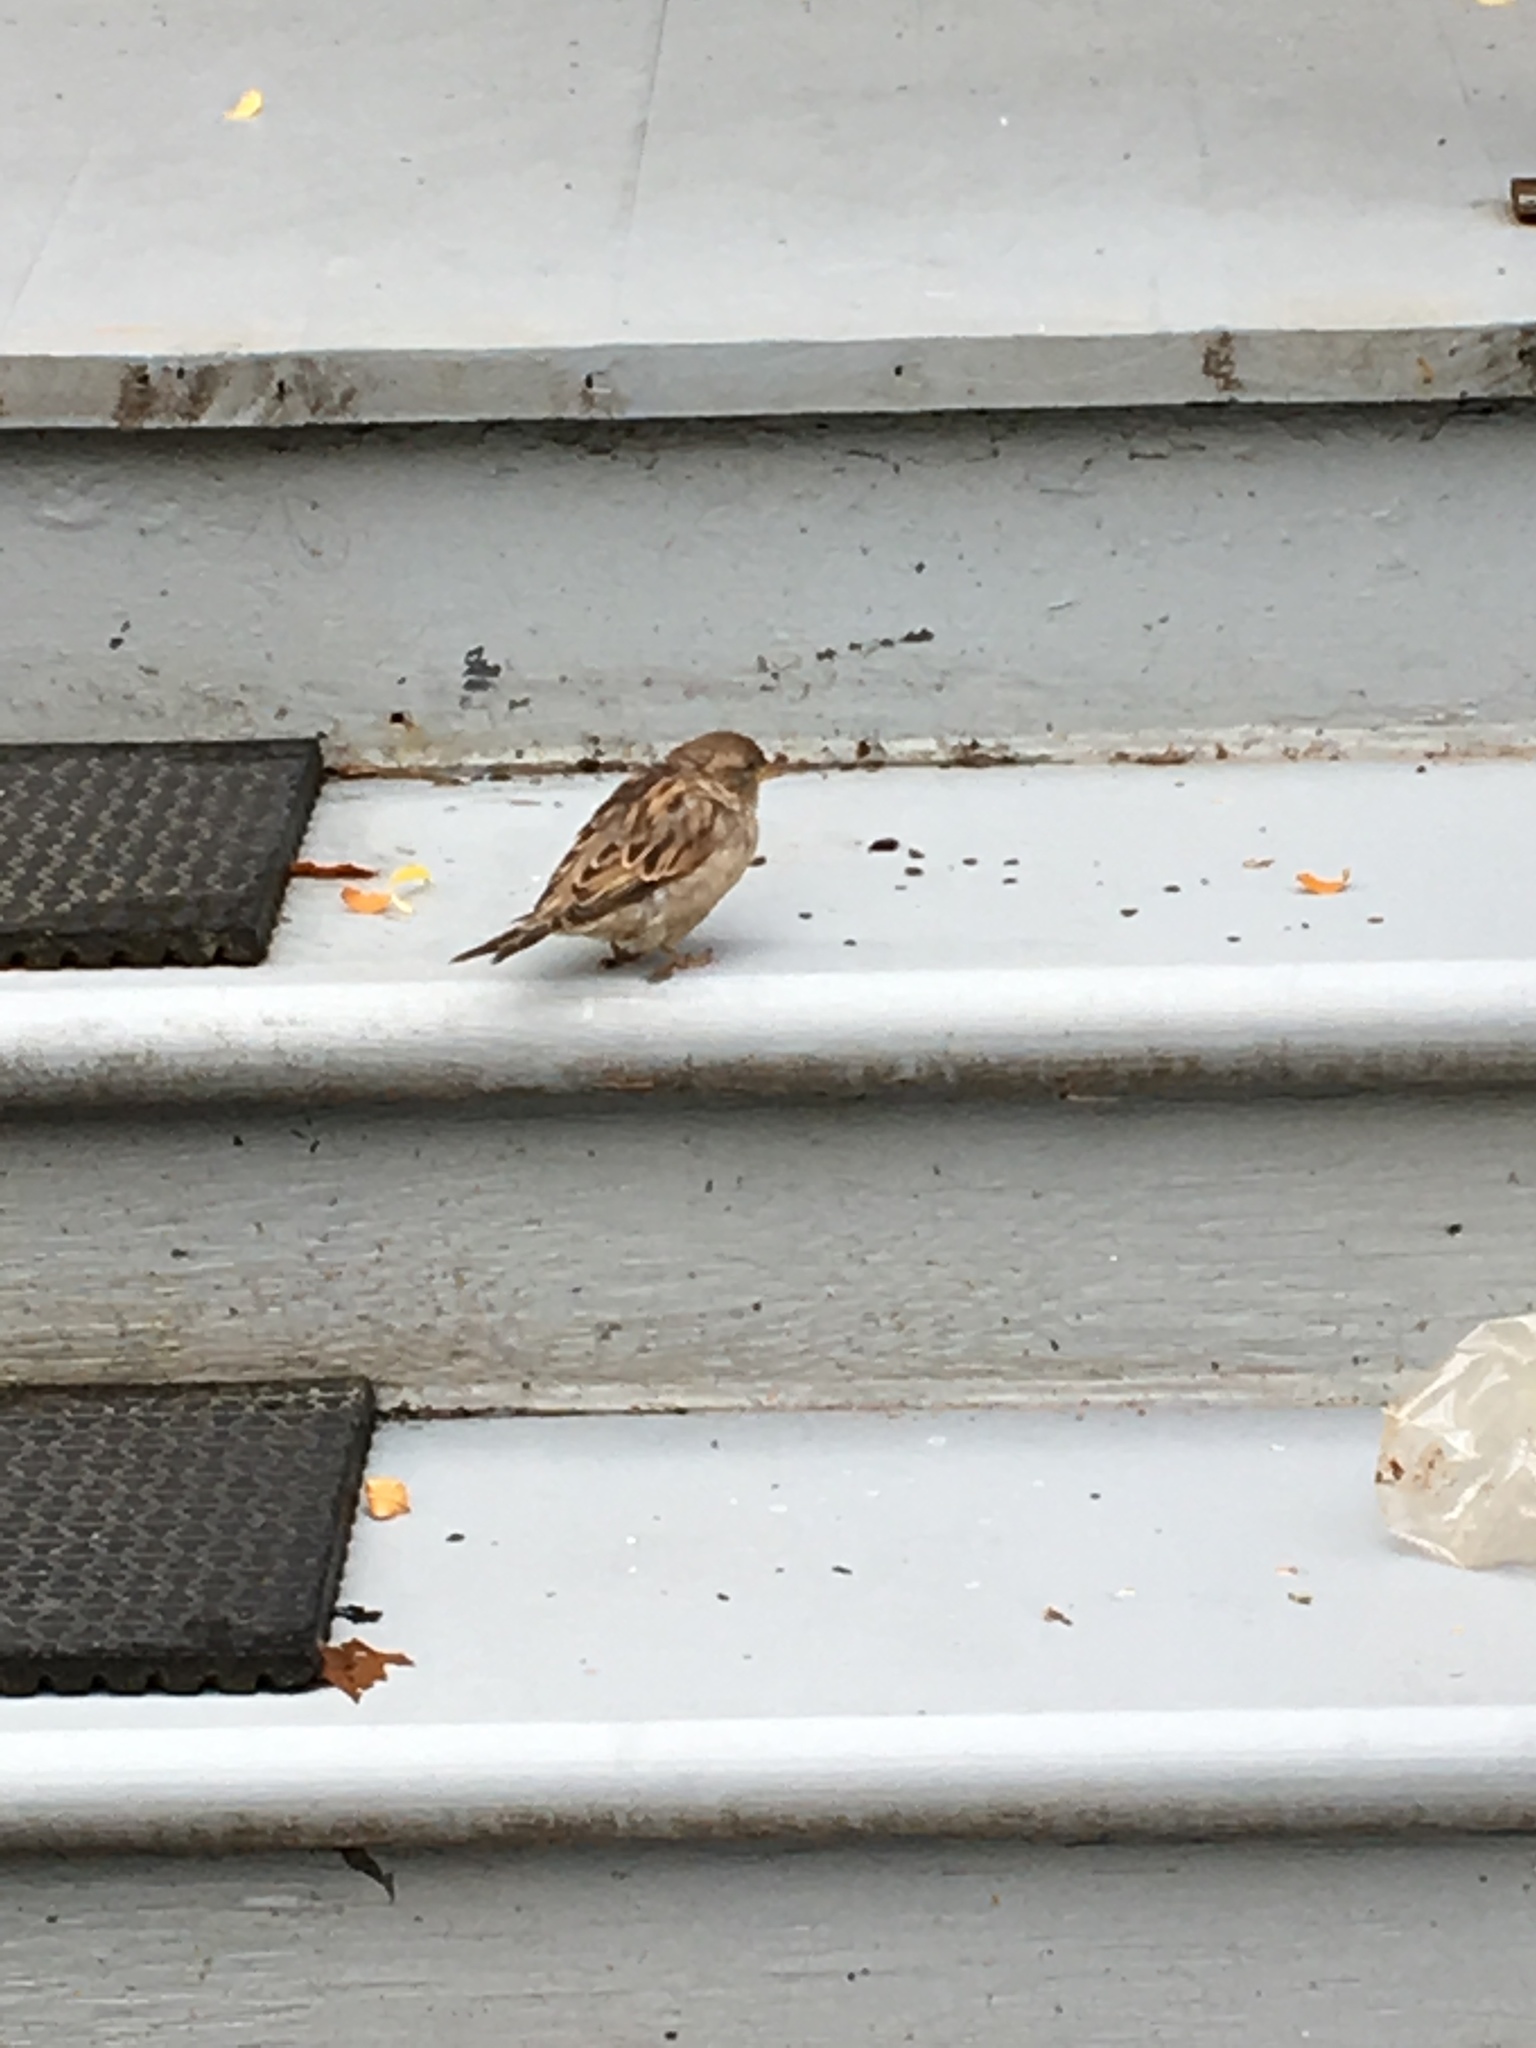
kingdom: Animalia
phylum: Chordata
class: Aves
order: Passeriformes
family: Passeridae
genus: Passer
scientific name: Passer domesticus
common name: House sparrow
